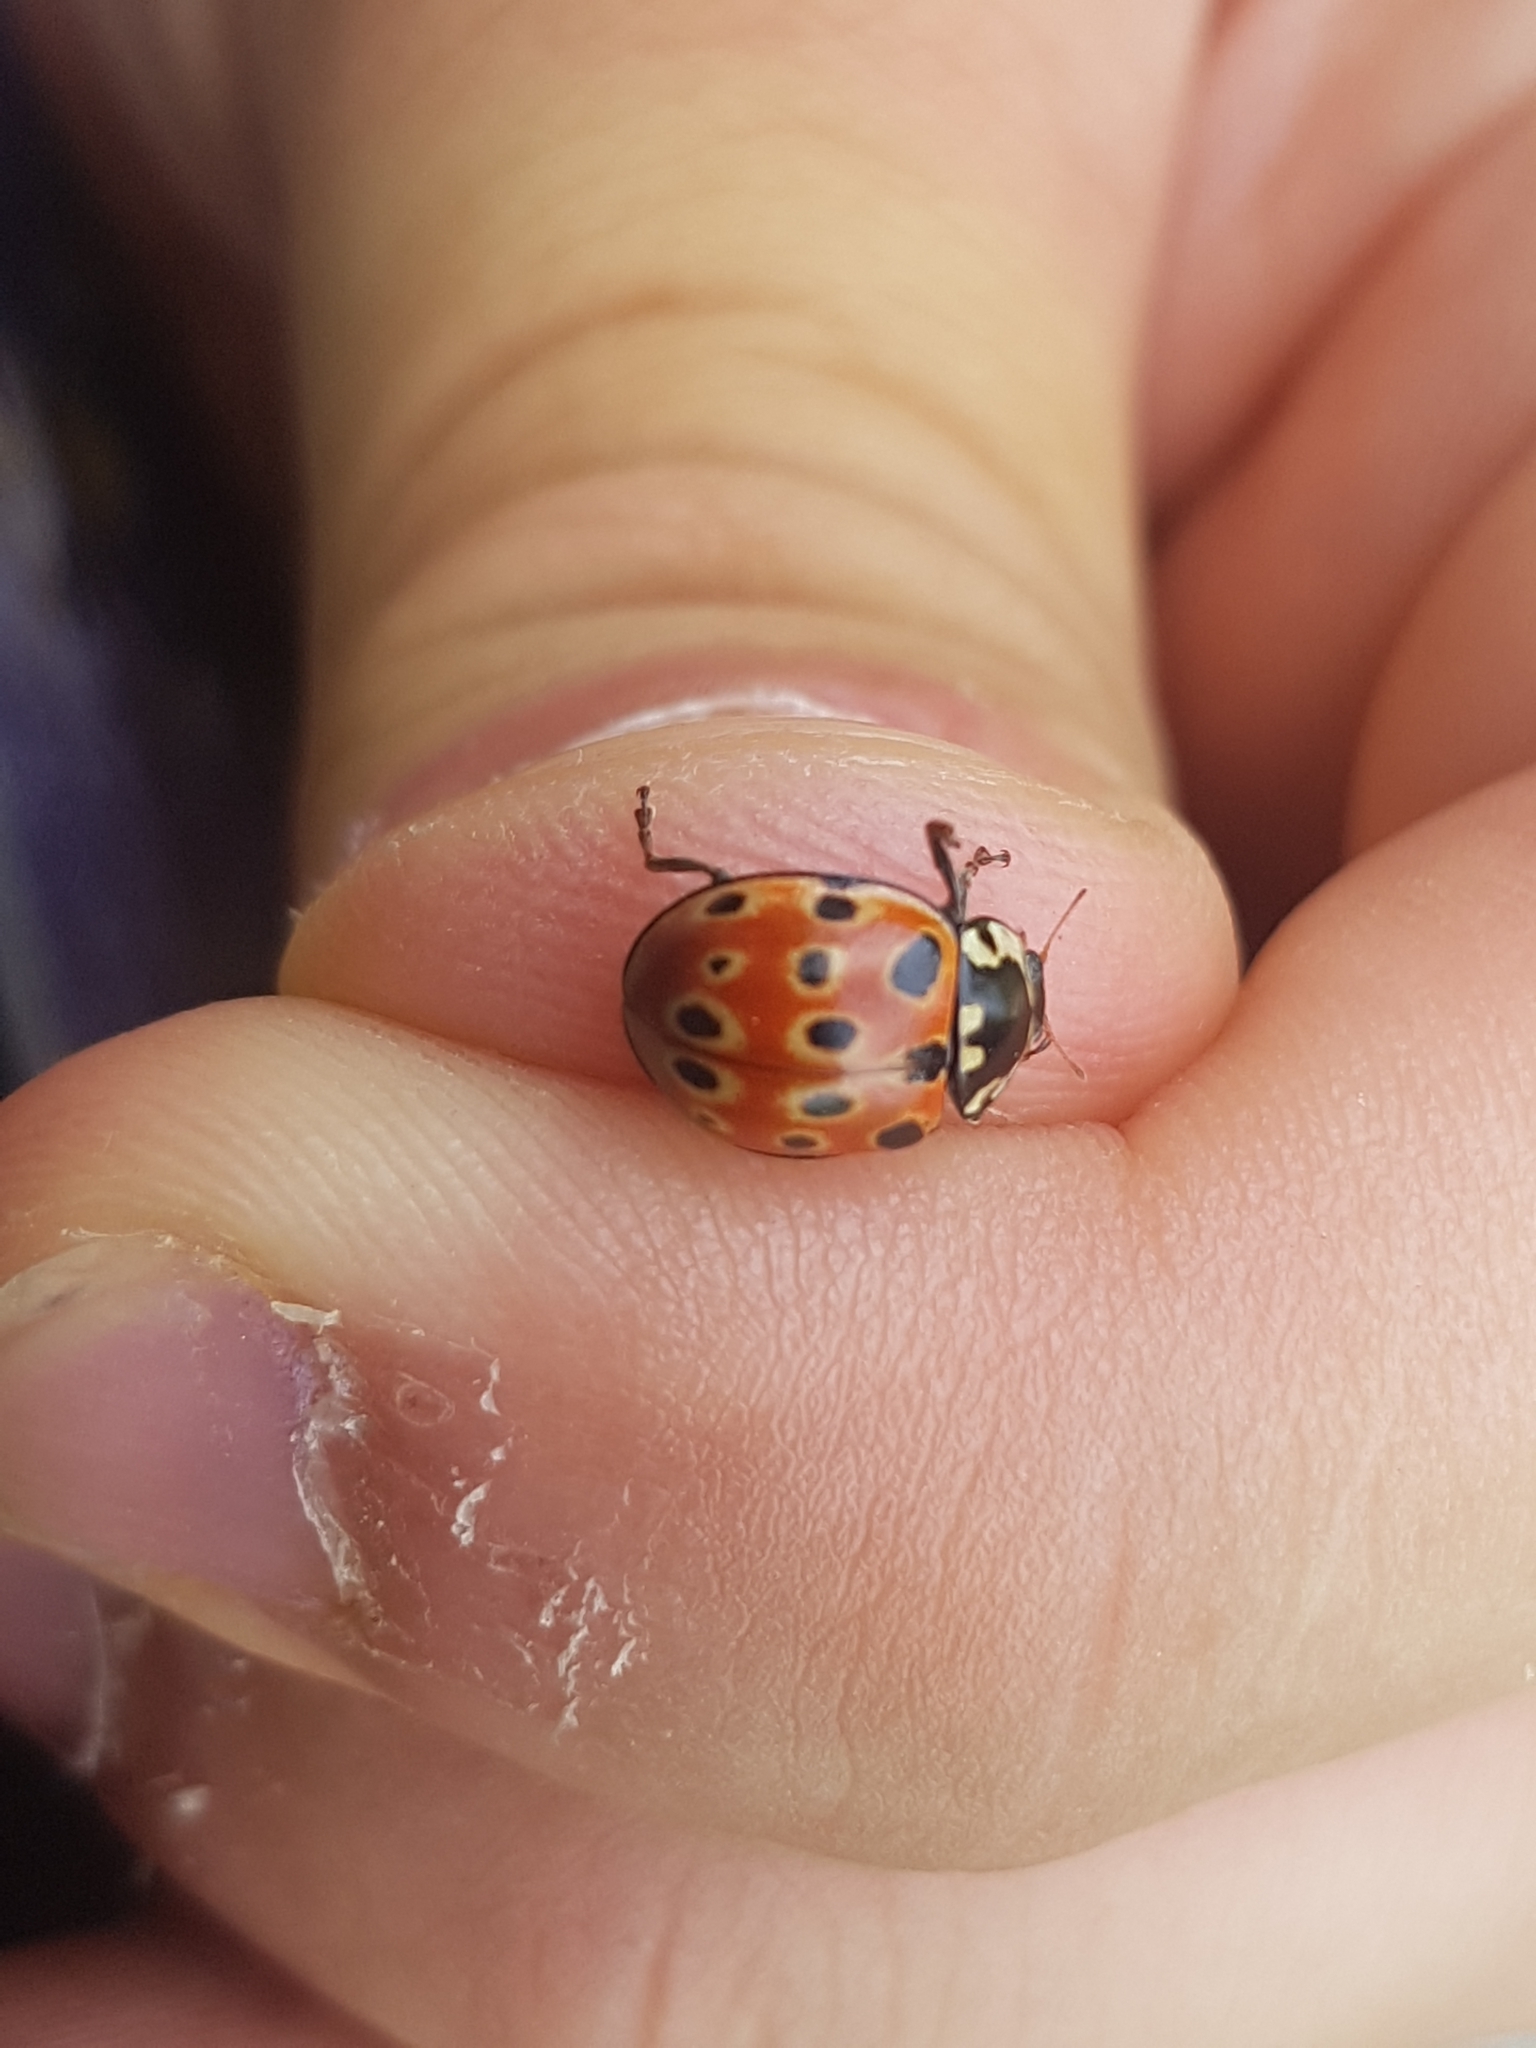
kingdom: Animalia
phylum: Arthropoda
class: Insecta
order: Coleoptera
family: Coccinellidae
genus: Anatis
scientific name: Anatis ocellata
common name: Eyed ladybird
